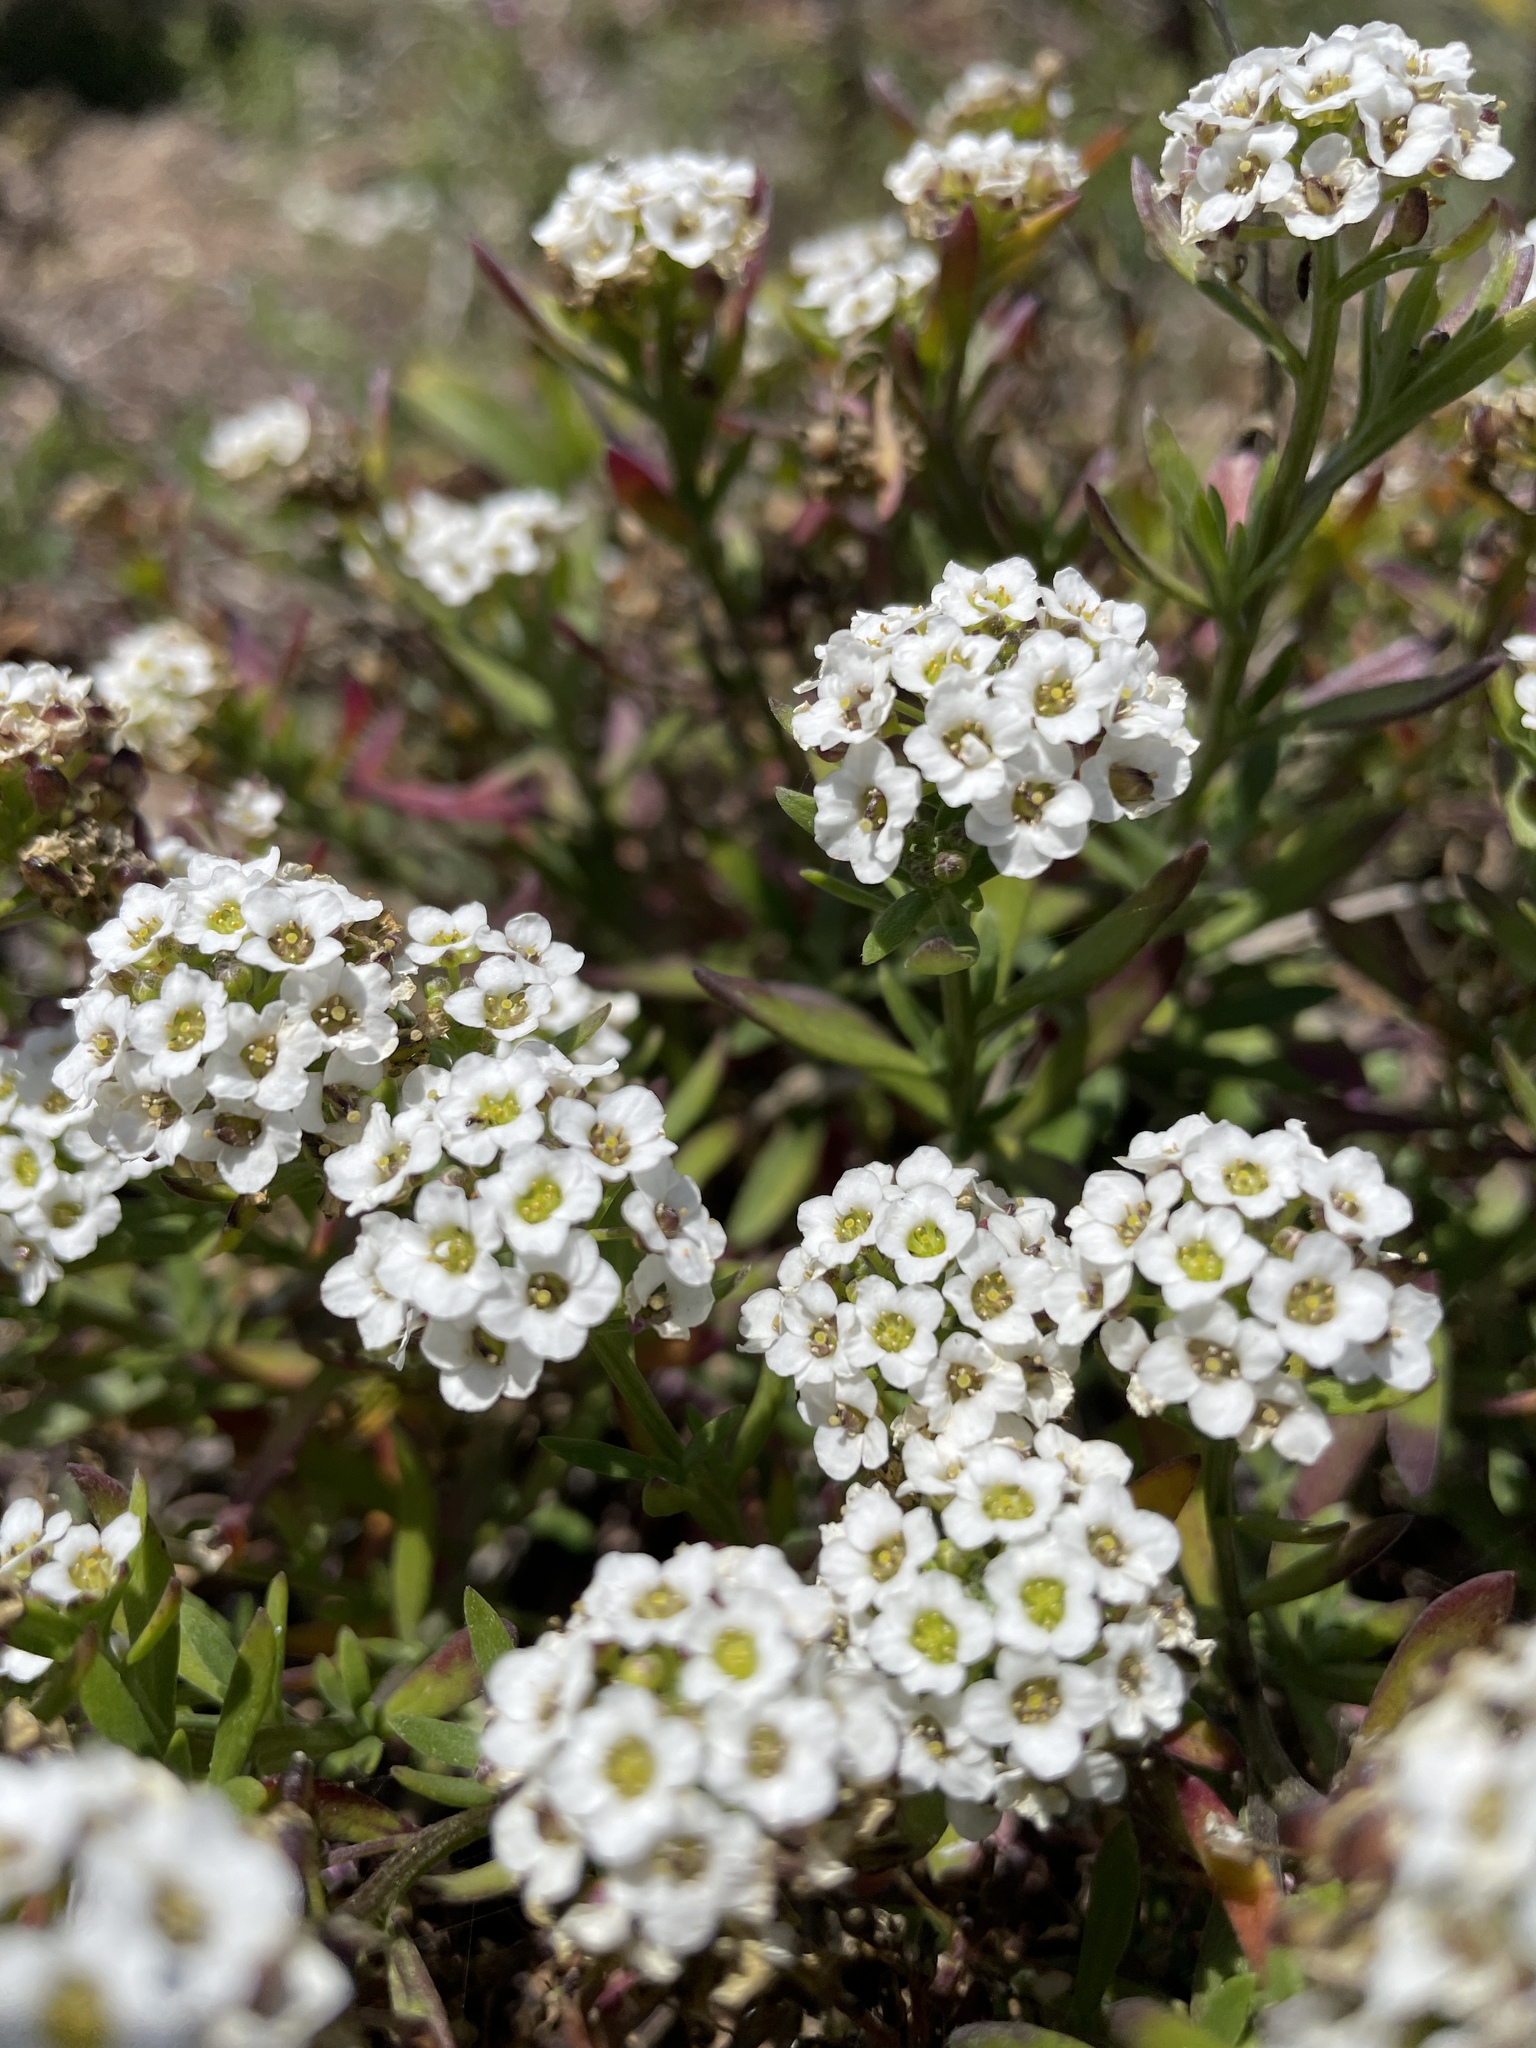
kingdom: Plantae
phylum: Tracheophyta
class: Magnoliopsida
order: Brassicales
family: Brassicaceae
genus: Lobularia
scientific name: Lobularia maritima
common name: Sweet alison
